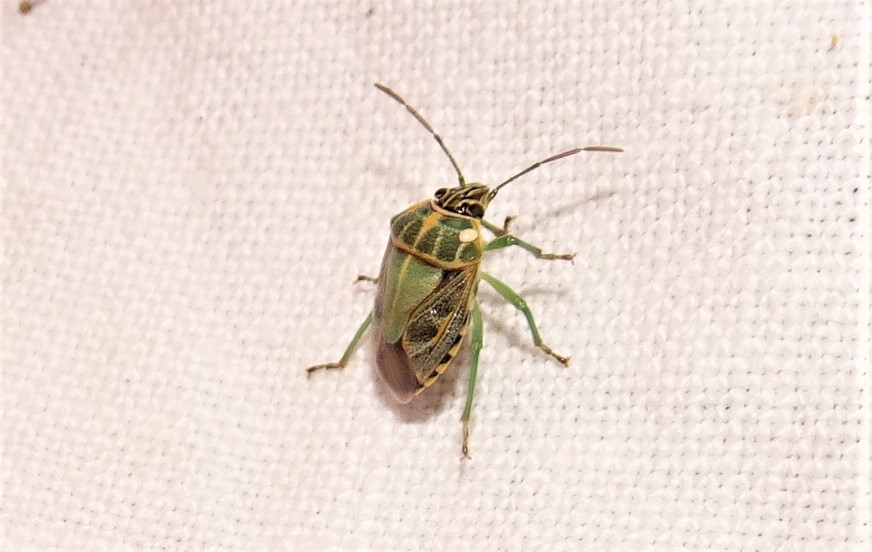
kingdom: Animalia
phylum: Arthropoda
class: Insecta
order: Hemiptera
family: Pentatomidae
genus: Antestiopsis
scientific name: Antestiopsis
